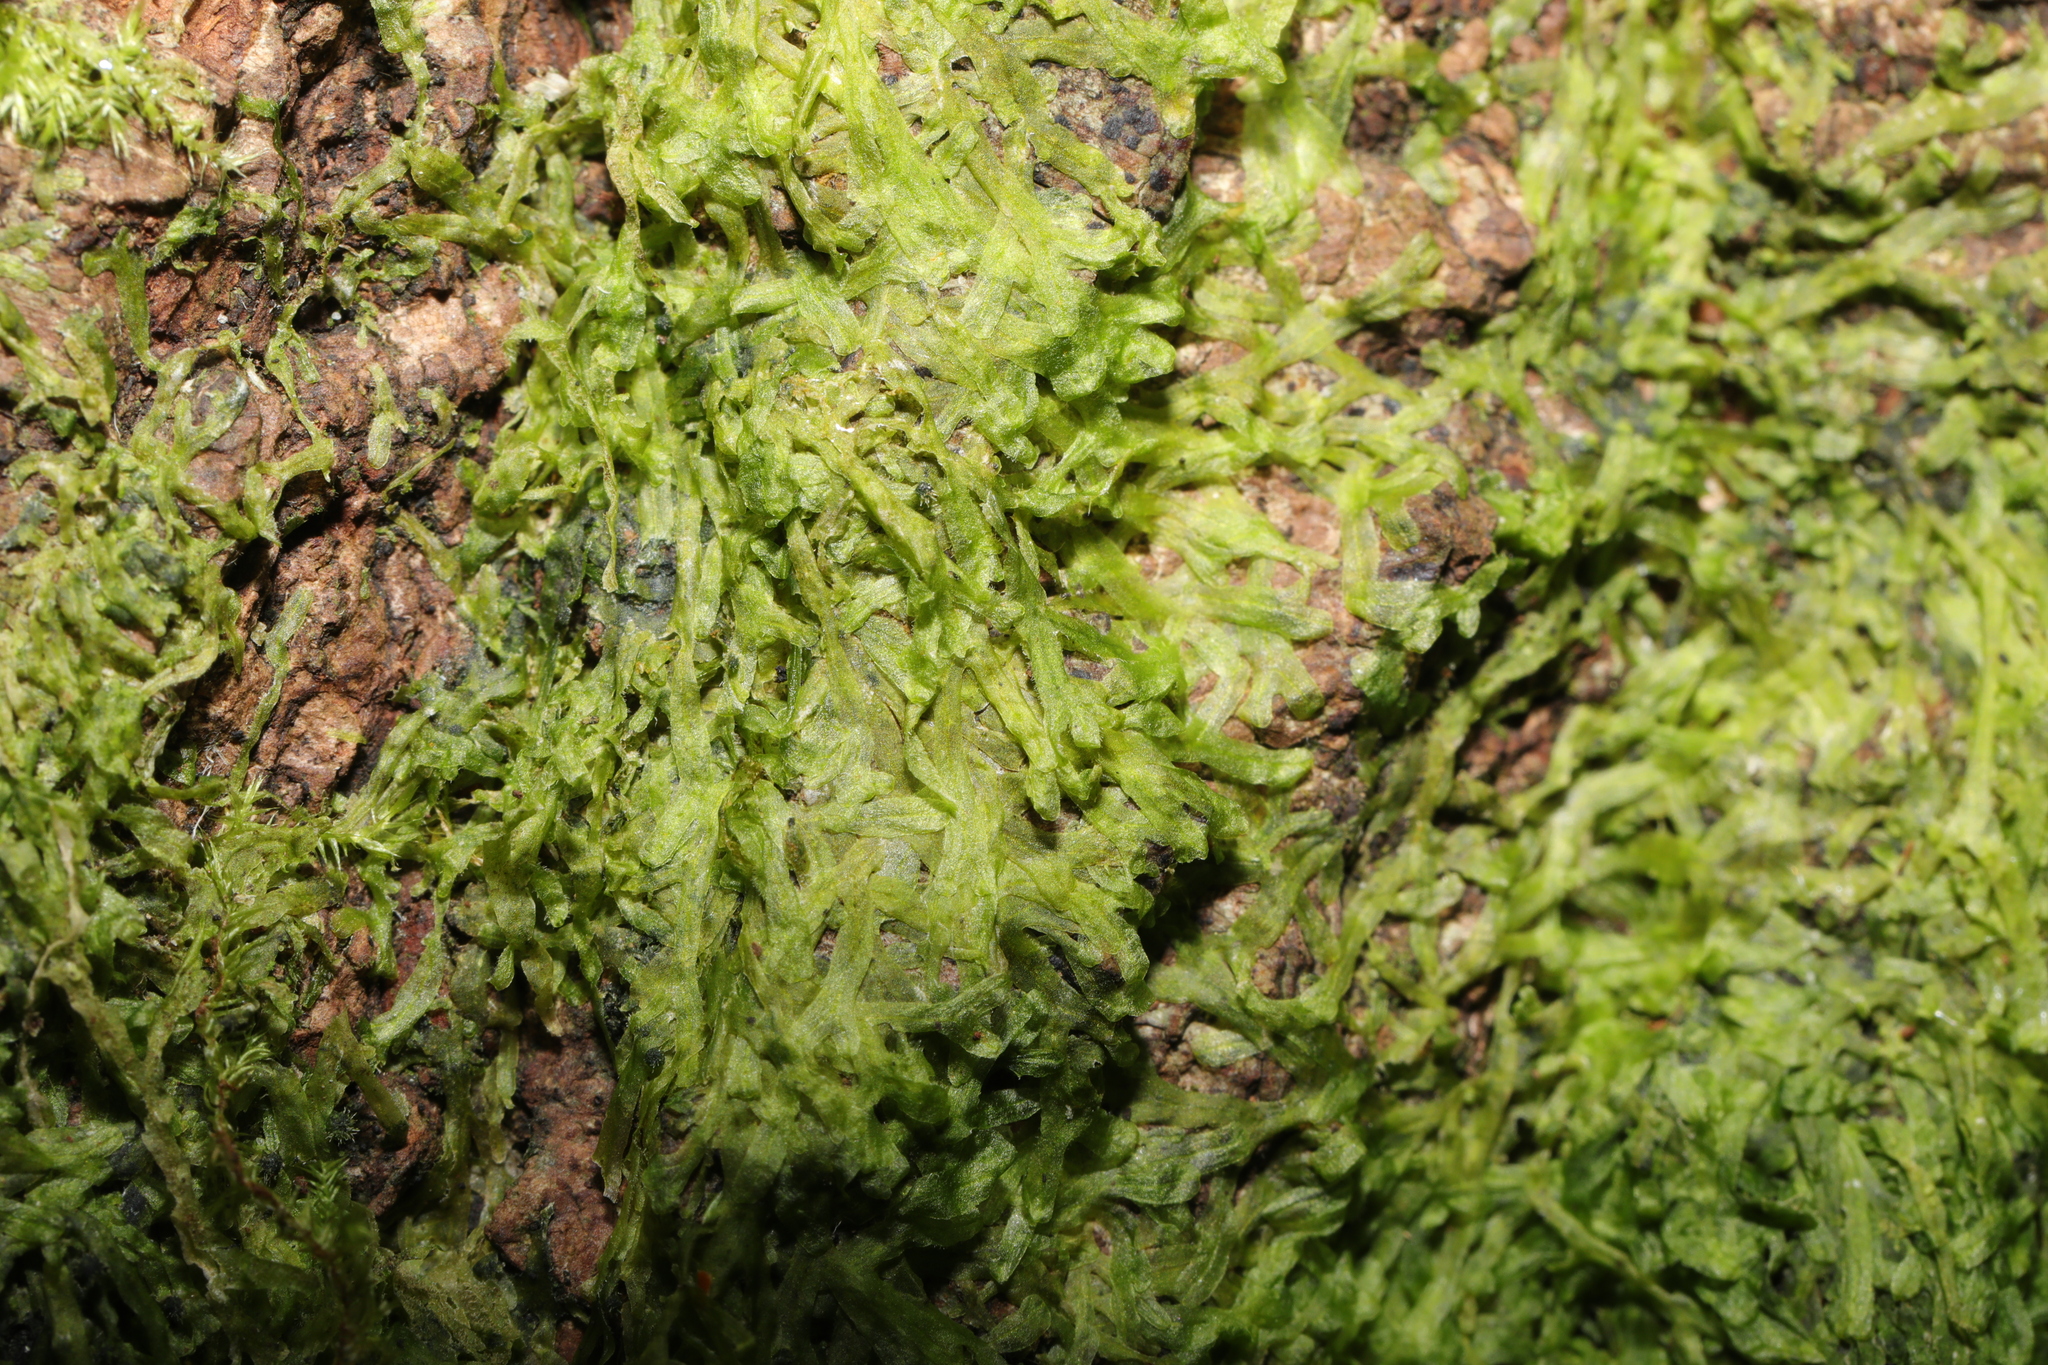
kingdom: Plantae
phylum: Marchantiophyta
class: Jungermanniopsida
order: Metzgeriales
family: Metzgeriaceae
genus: Metzgeria
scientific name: Metzgeria furcata
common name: Forked veilwort
